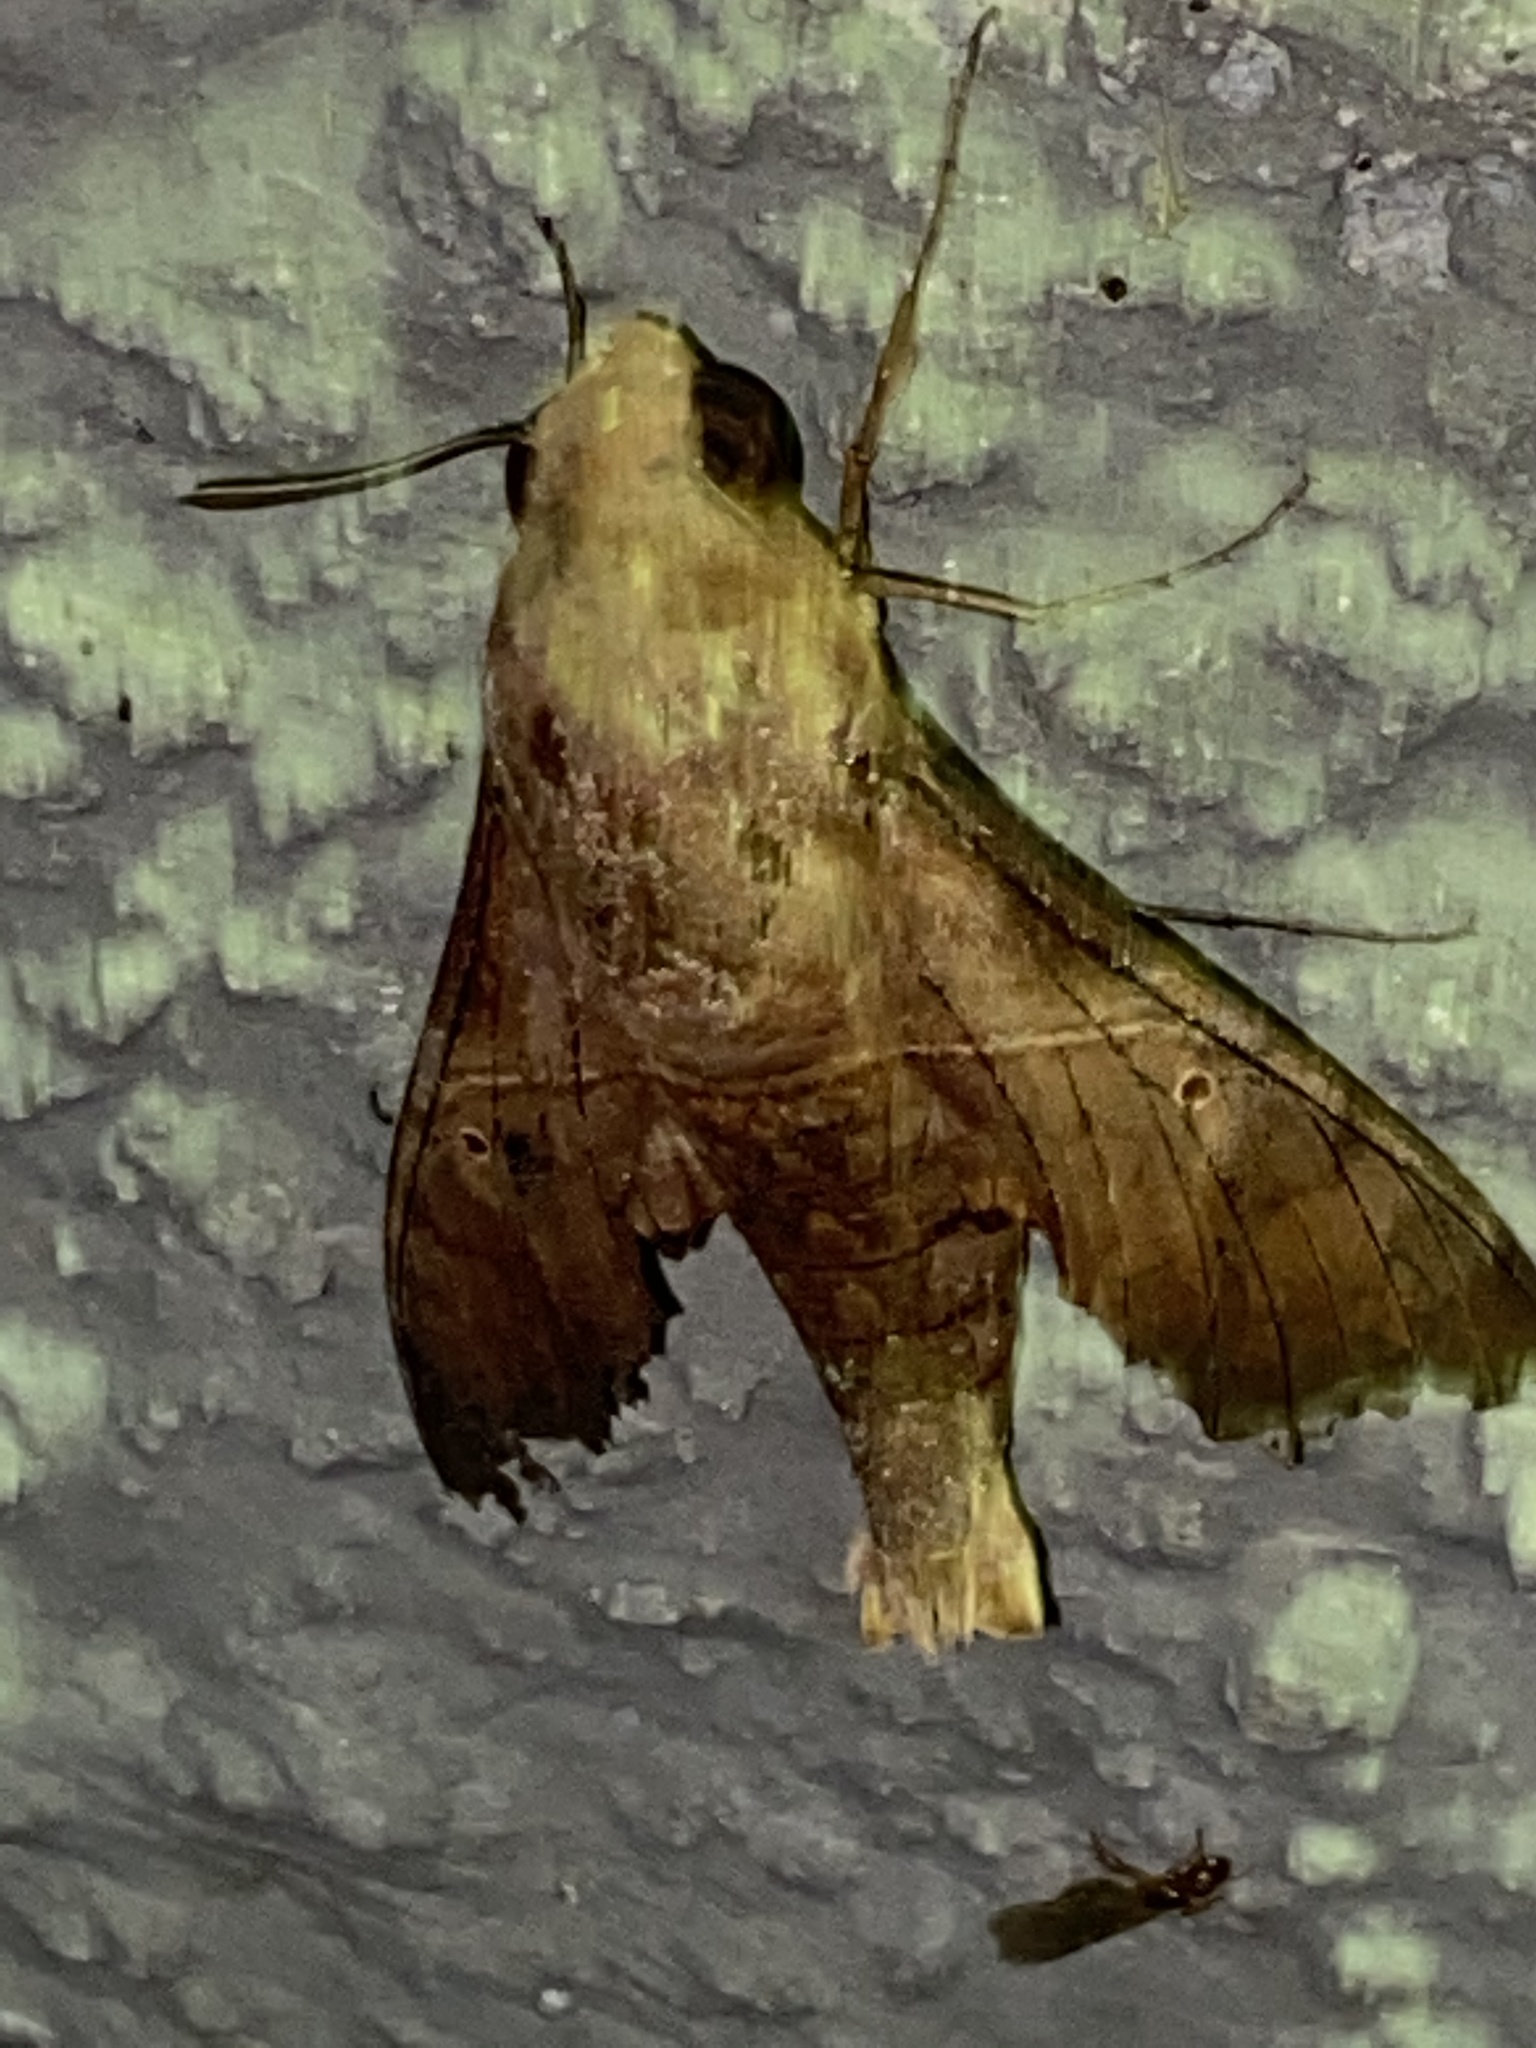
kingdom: Animalia
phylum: Arthropoda
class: Insecta
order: Lepidoptera
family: Sphingidae
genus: Enyo
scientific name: Enyo lugubris
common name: Mournful sphinx
